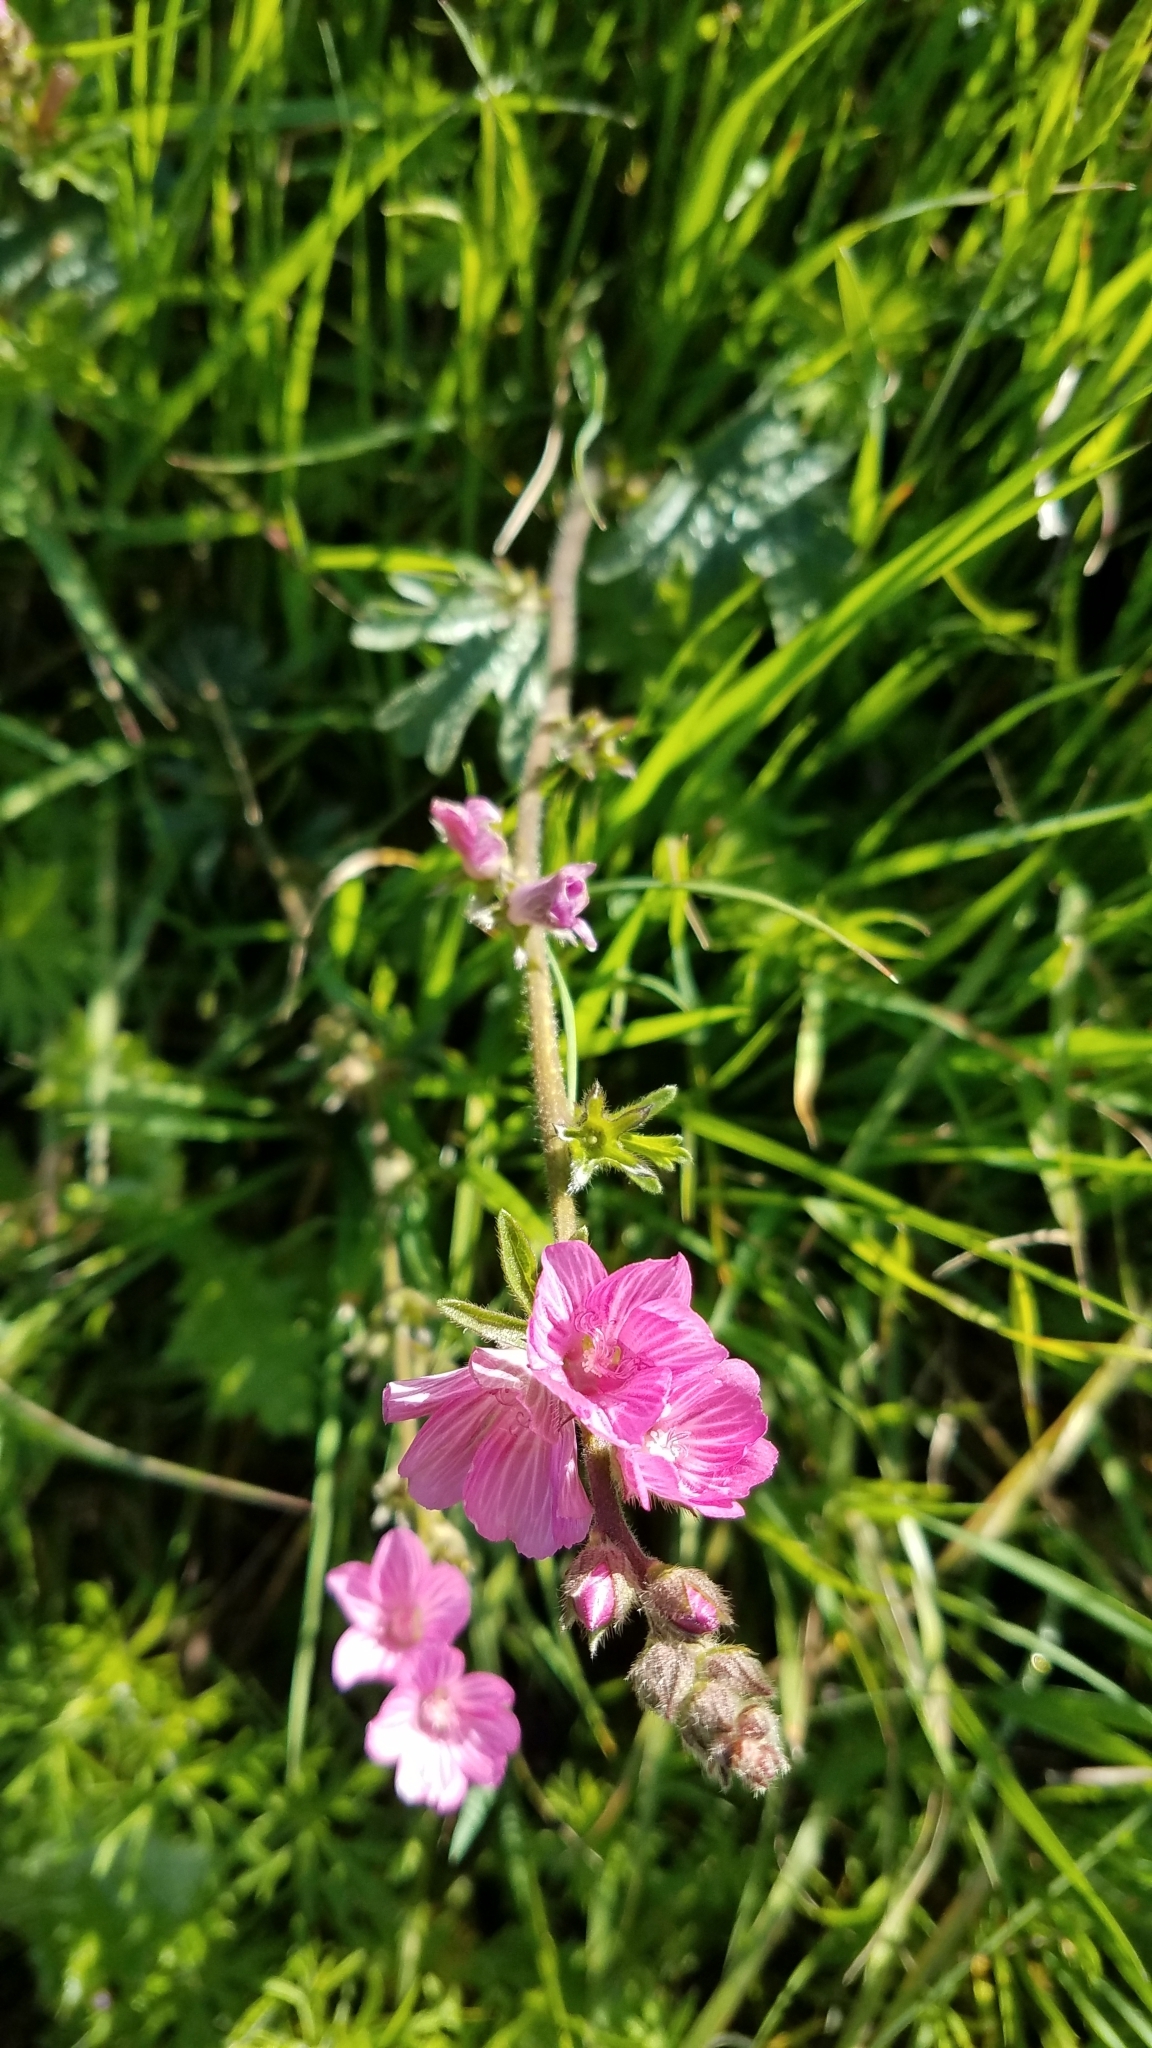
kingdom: Plantae
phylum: Tracheophyta
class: Magnoliopsida
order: Malvales
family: Malvaceae
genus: Sidalcea
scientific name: Sidalcea malviflora
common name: Greek mallow
